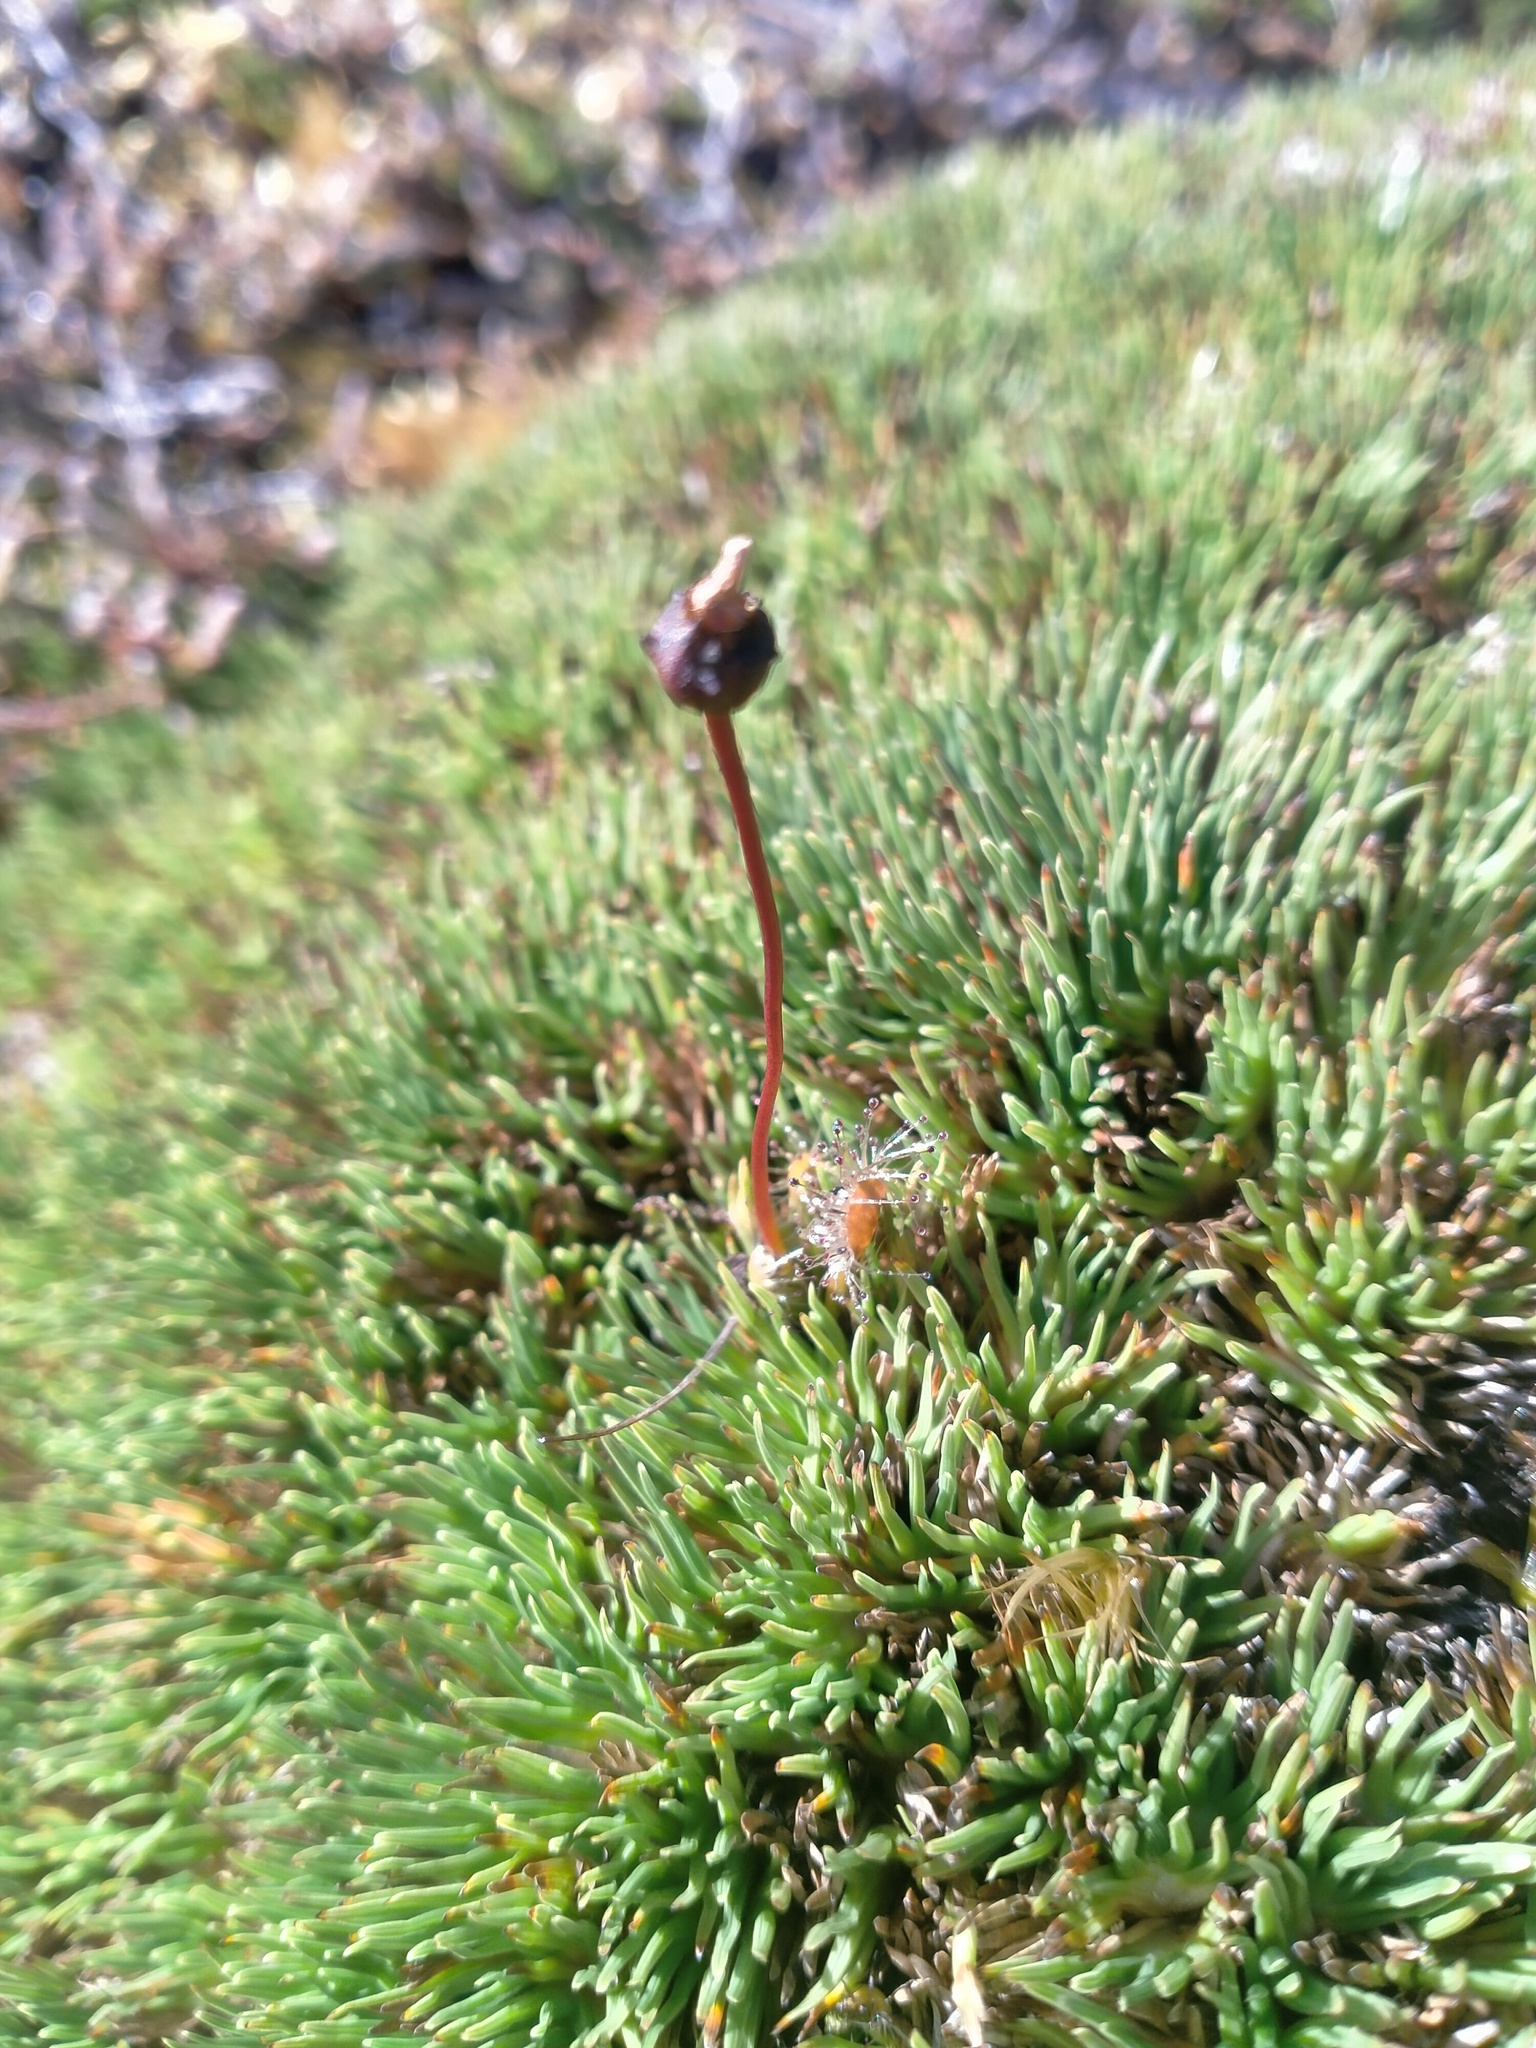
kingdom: Plantae
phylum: Tracheophyta
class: Magnoliopsida
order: Caryophyllales
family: Droseraceae
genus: Drosera
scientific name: Drosera stenopetala
